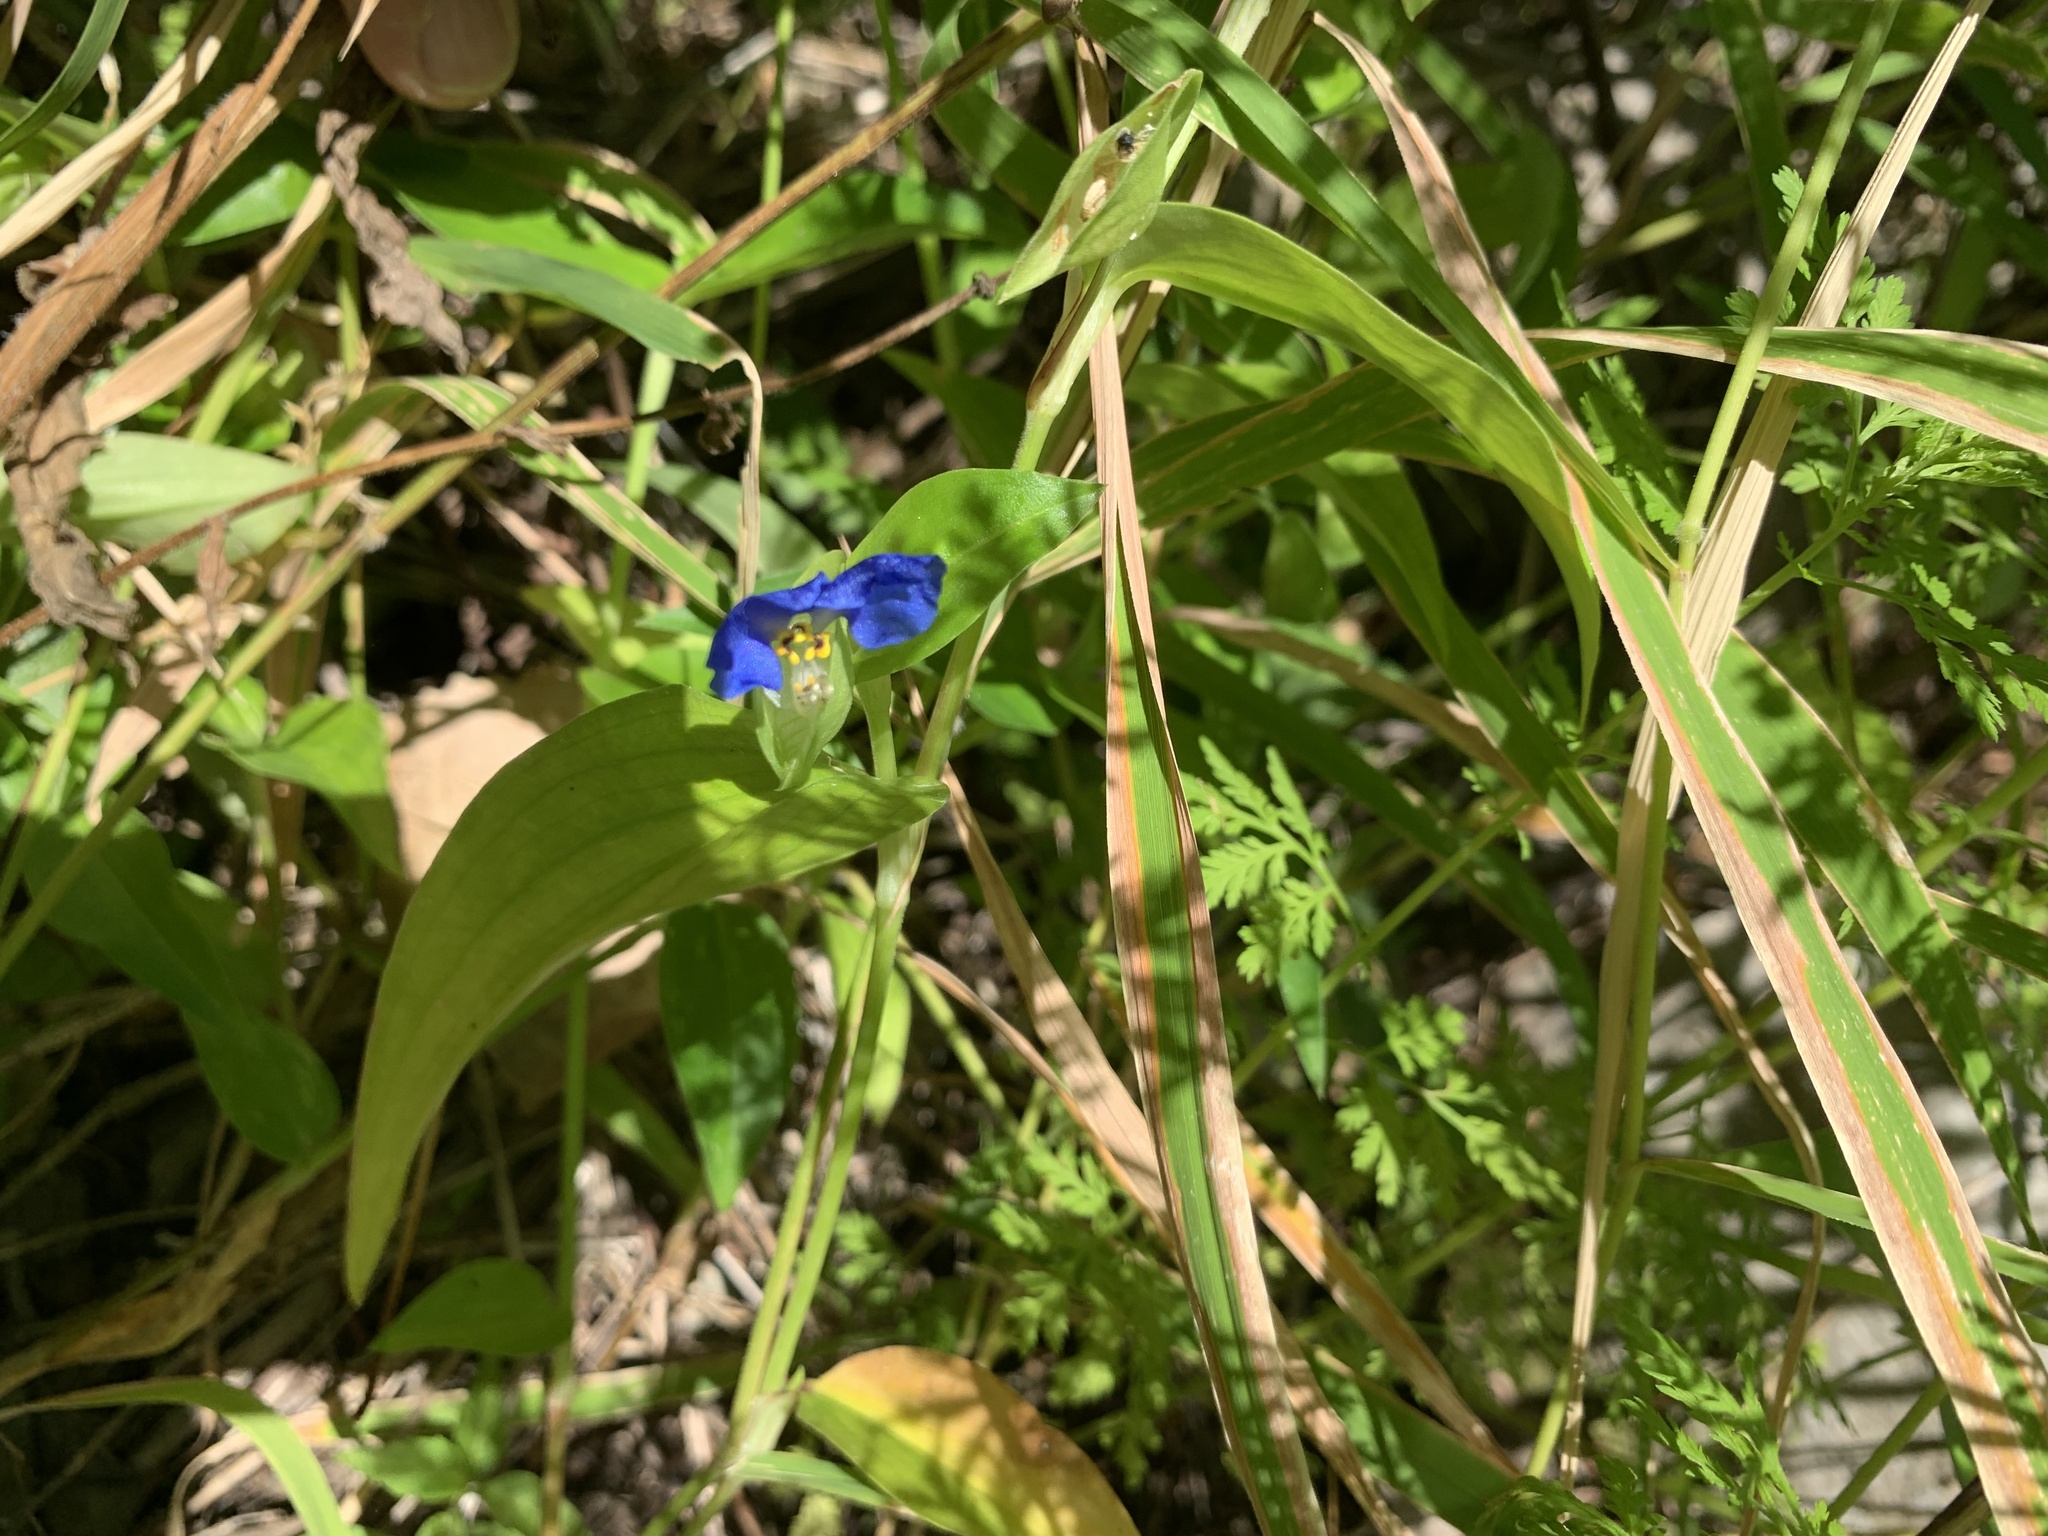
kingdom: Plantae
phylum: Tracheophyta
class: Liliopsida
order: Commelinales
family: Commelinaceae
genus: Commelina
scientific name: Commelina communis
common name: Asiatic dayflower
